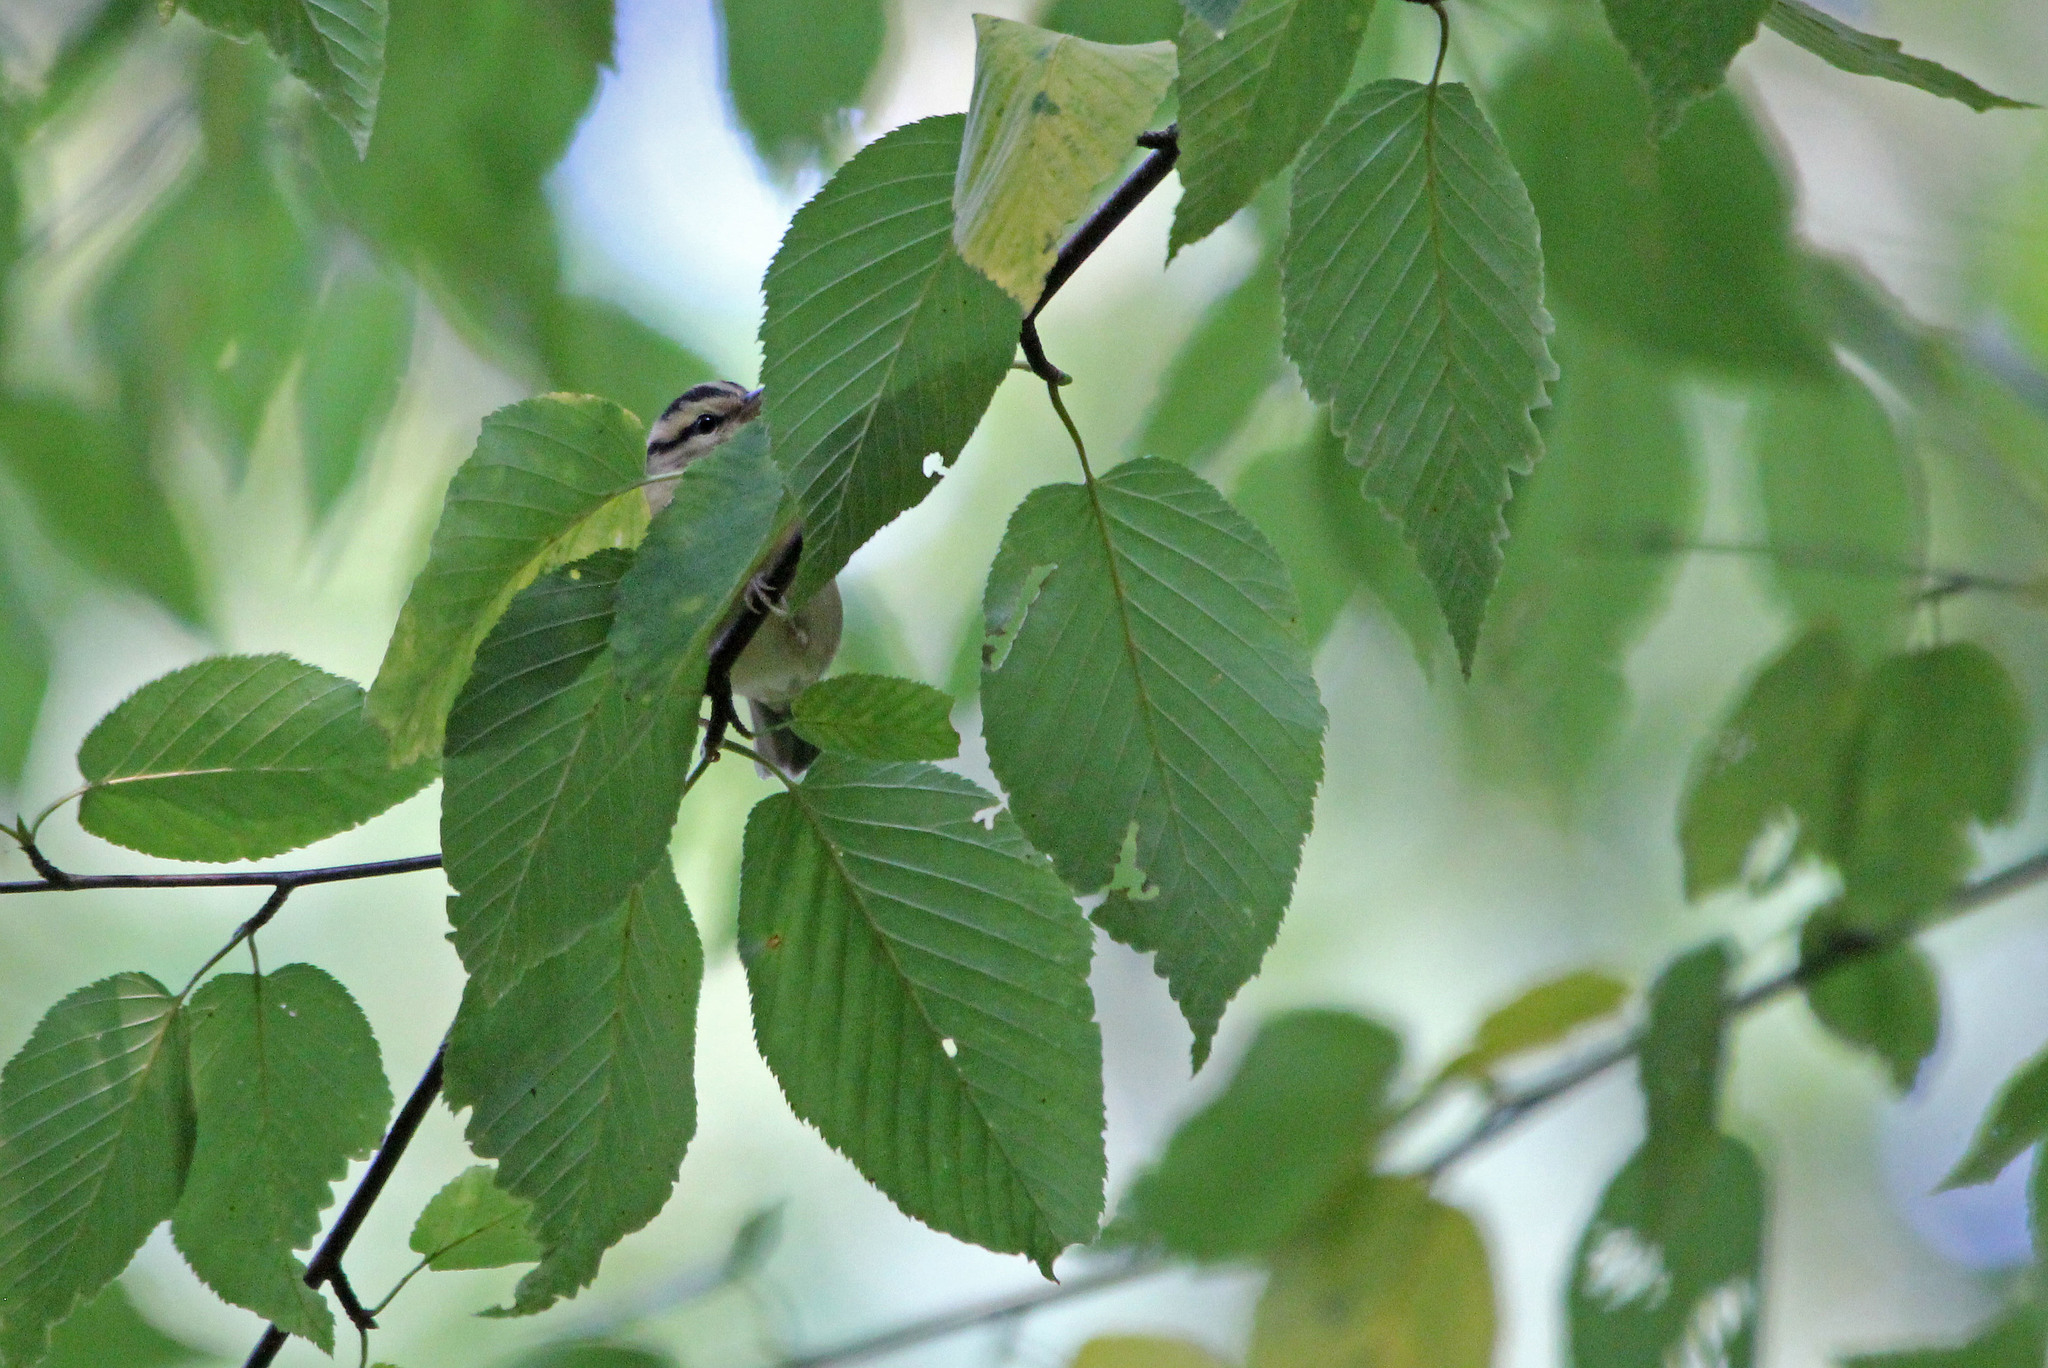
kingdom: Animalia
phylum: Chordata
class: Aves
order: Passeriformes
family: Parulidae
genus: Helmitheros
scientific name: Helmitheros vermivorum
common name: Worm-eating warbler
